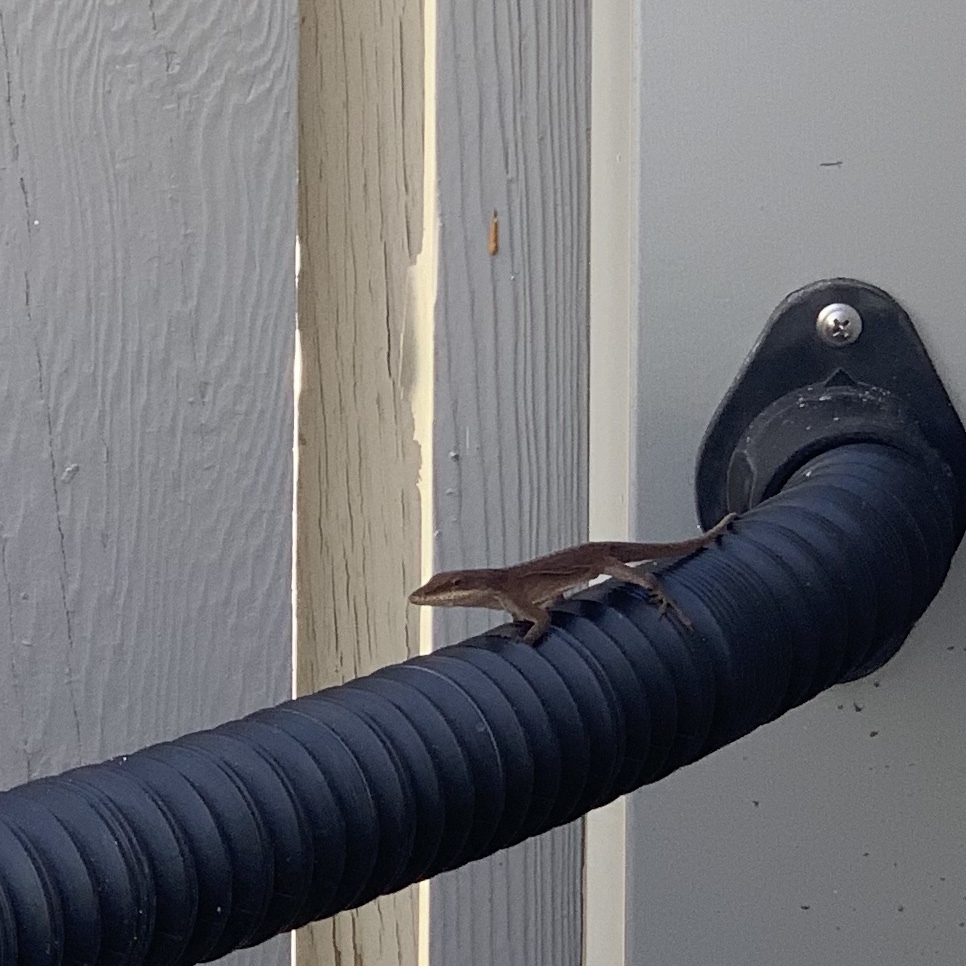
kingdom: Animalia
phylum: Chordata
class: Squamata
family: Dactyloidae
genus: Anolis
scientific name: Anolis carolinensis
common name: Green anole
